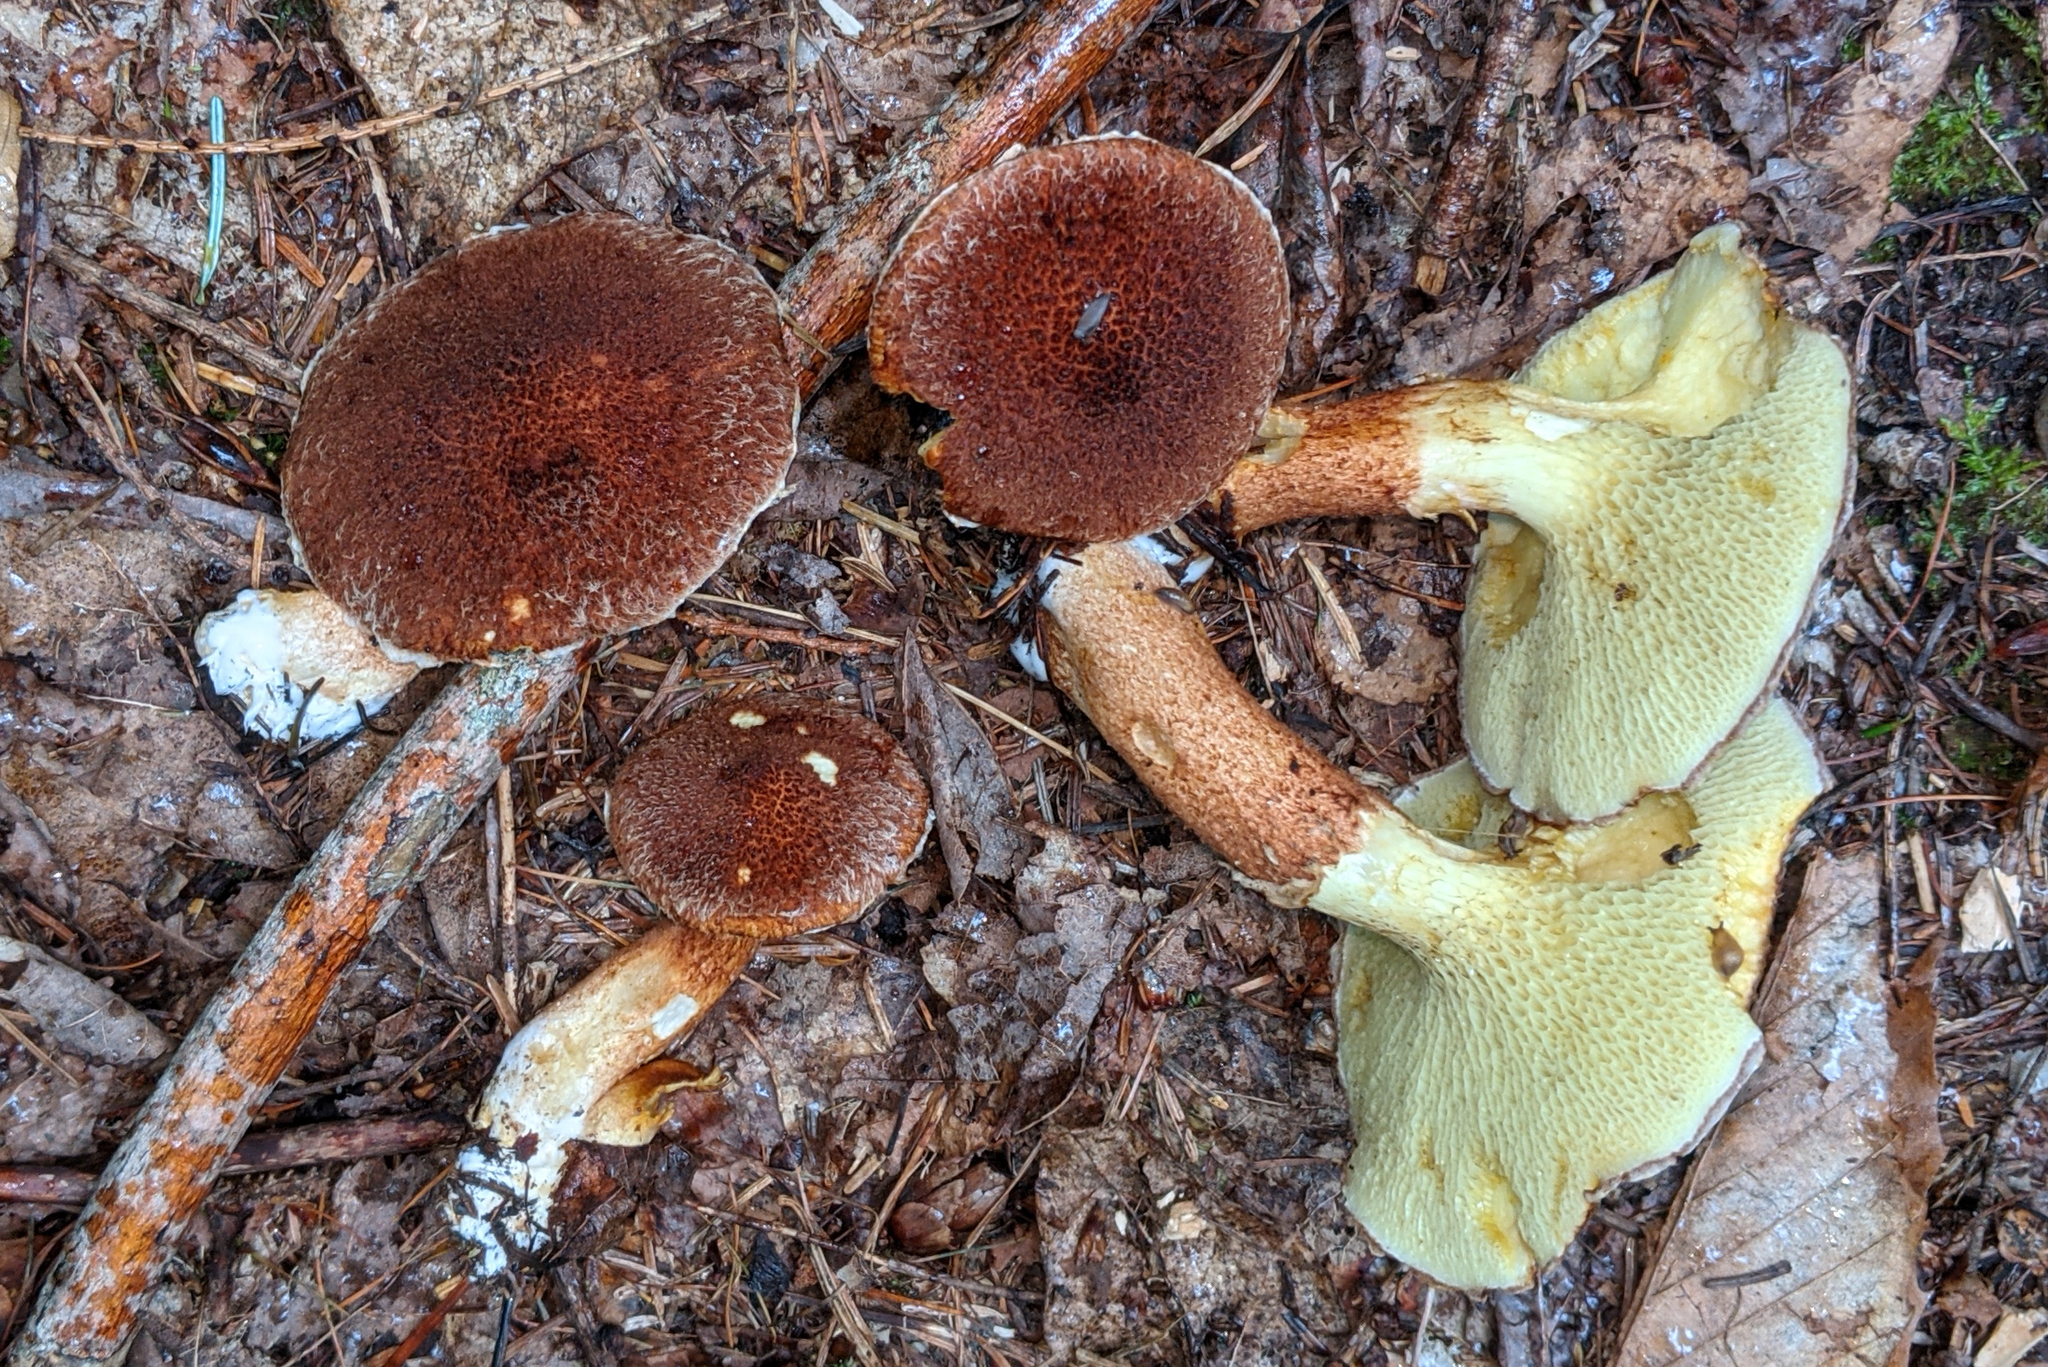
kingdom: Fungi
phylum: Basidiomycota
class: Agaricomycetes
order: Boletales
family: Suillaceae
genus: Boletinus
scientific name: Boletinus ampliporus
